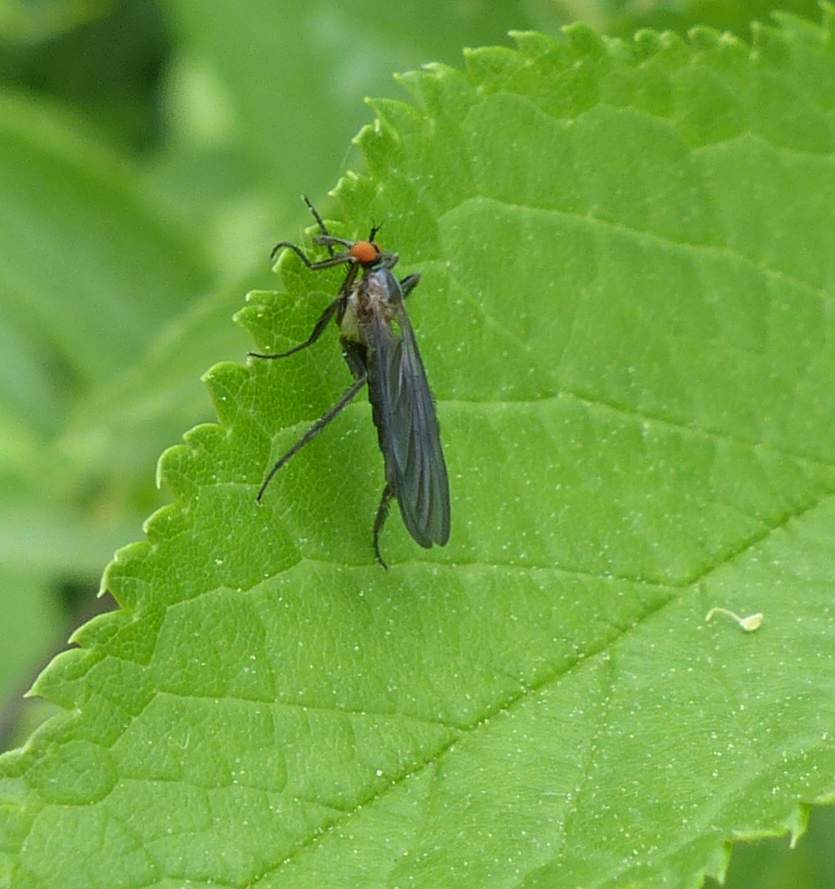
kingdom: Animalia
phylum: Arthropoda
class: Insecta
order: Diptera
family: Empididae
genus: Rhamphomyia
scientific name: Rhamphomyia longicauda
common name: Long-tailed dance fly
